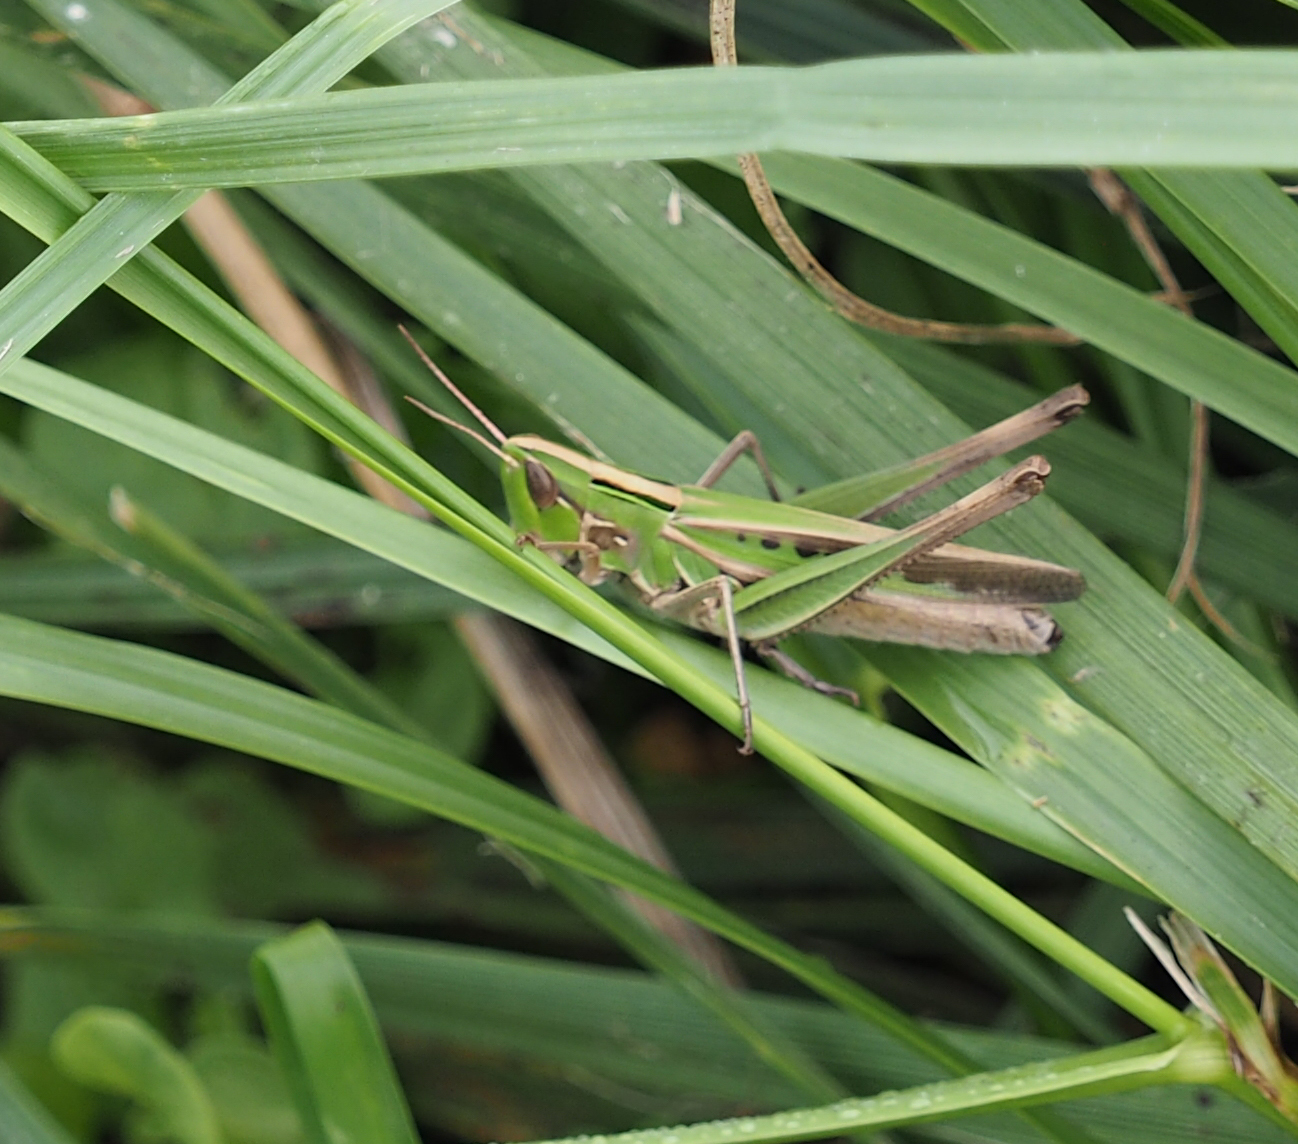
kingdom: Animalia
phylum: Arthropoda
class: Insecta
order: Orthoptera
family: Acrididae
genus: Syrbula
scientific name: Syrbula admirabilis
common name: Handsome grasshopper
